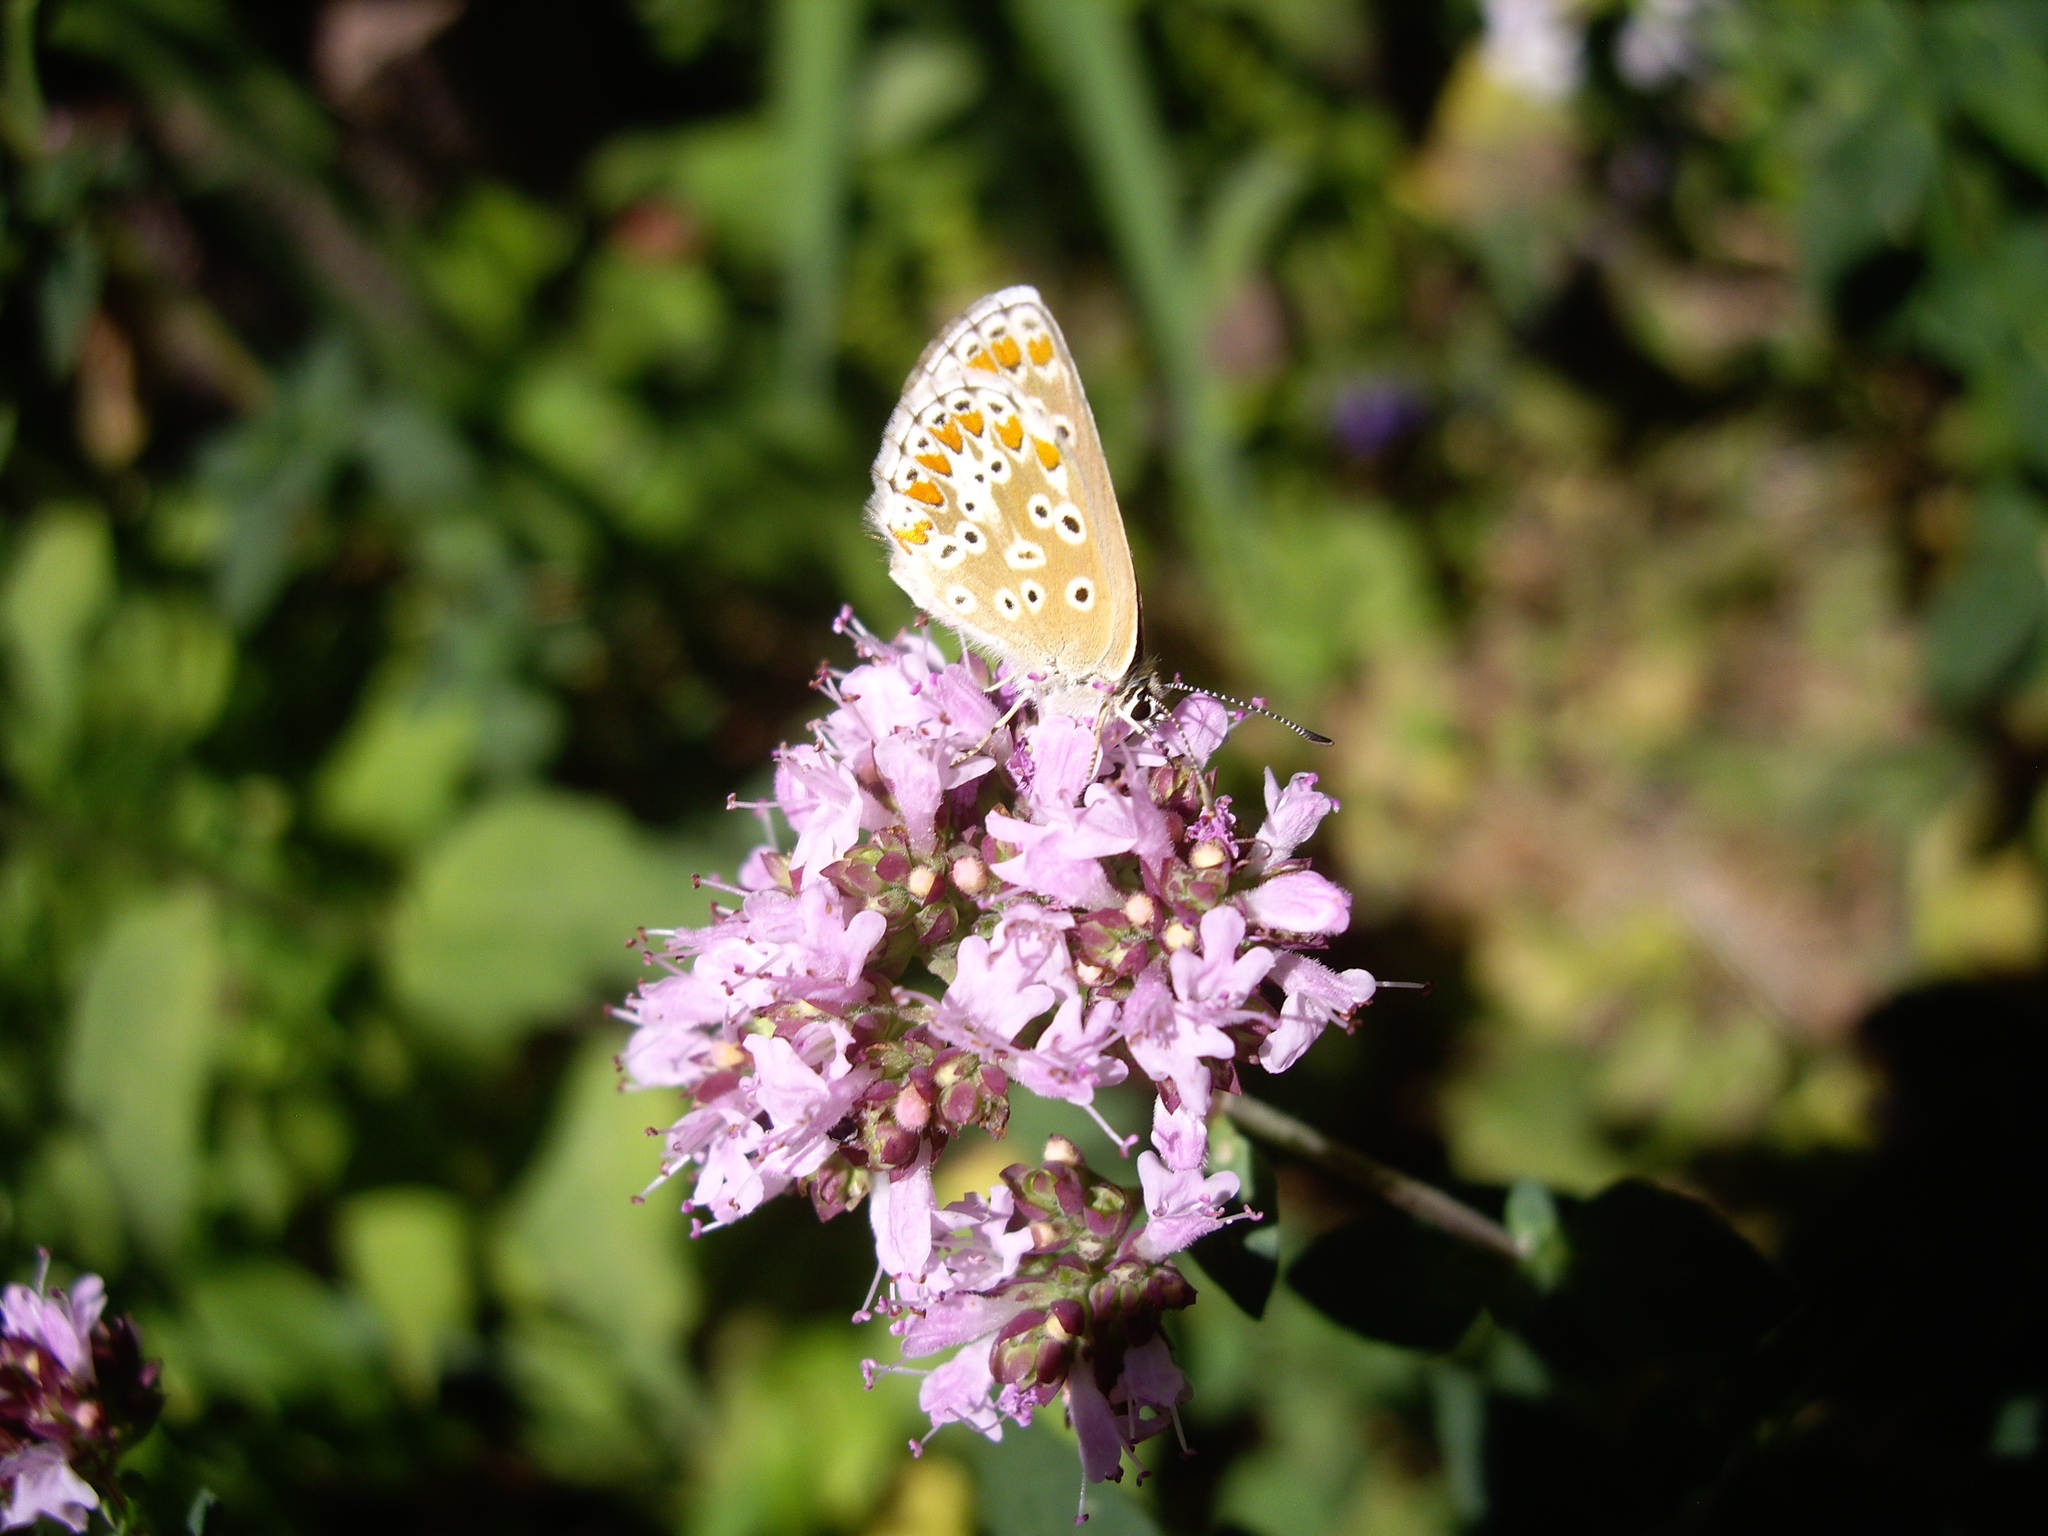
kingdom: Animalia
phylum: Arthropoda
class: Insecta
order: Lepidoptera
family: Lycaenidae
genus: Aricia
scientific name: Aricia agestis
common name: Brown argus
